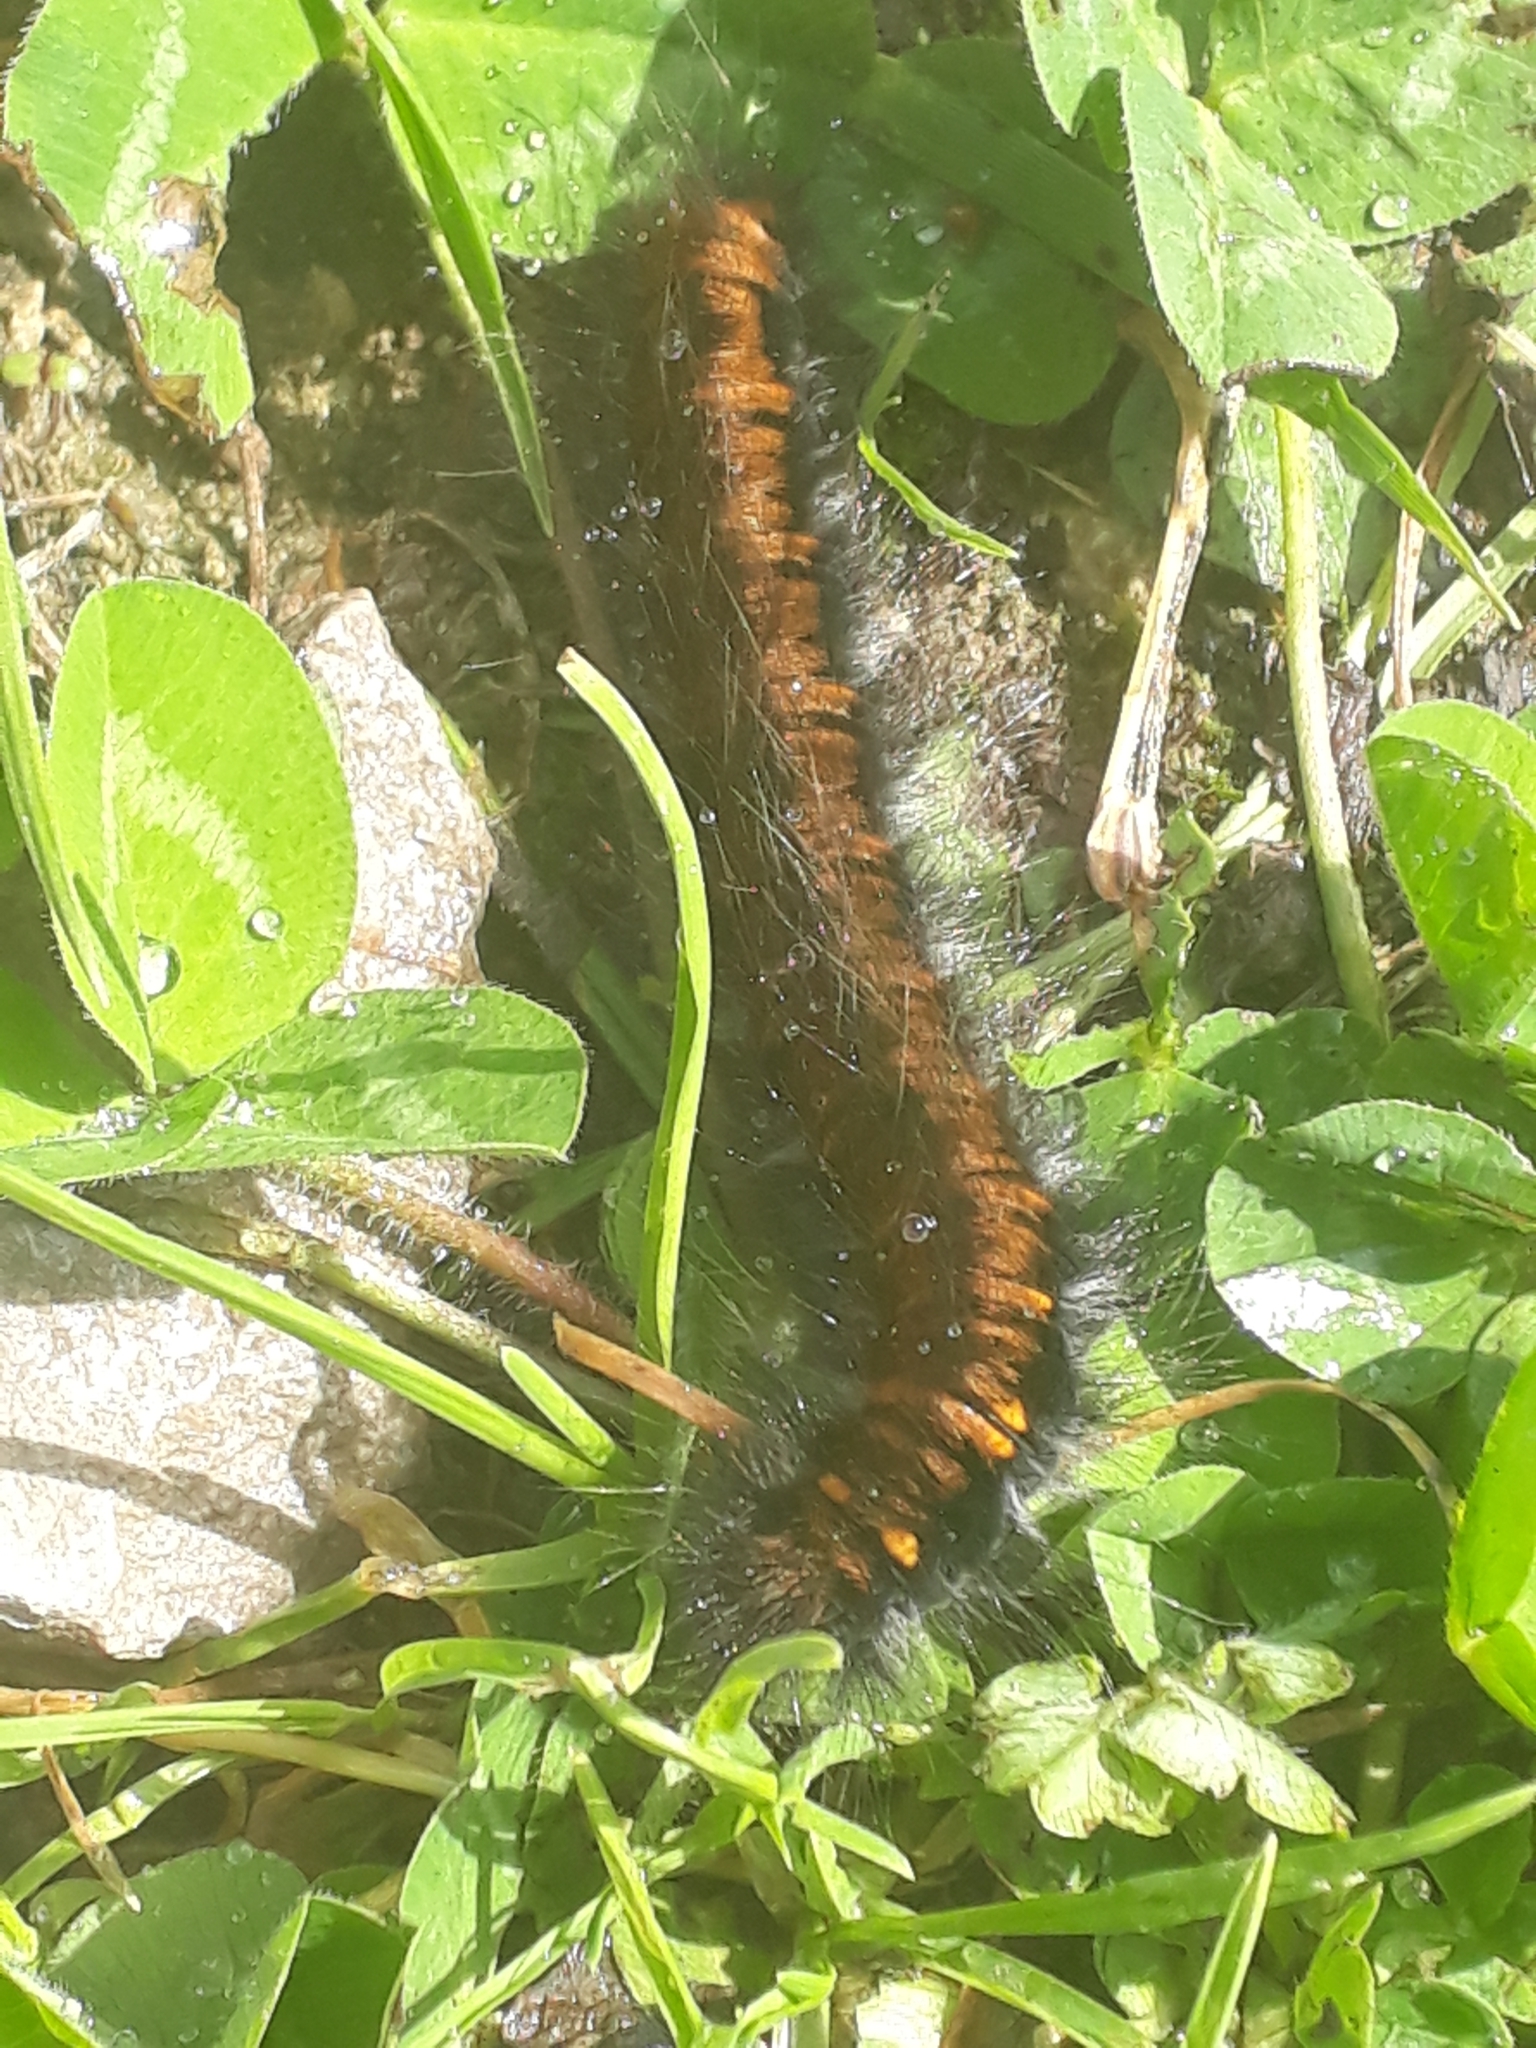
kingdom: Animalia
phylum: Arthropoda
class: Insecta
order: Lepidoptera
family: Lasiocampidae
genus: Macrothylacia
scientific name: Macrothylacia rubi
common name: Fox moth
